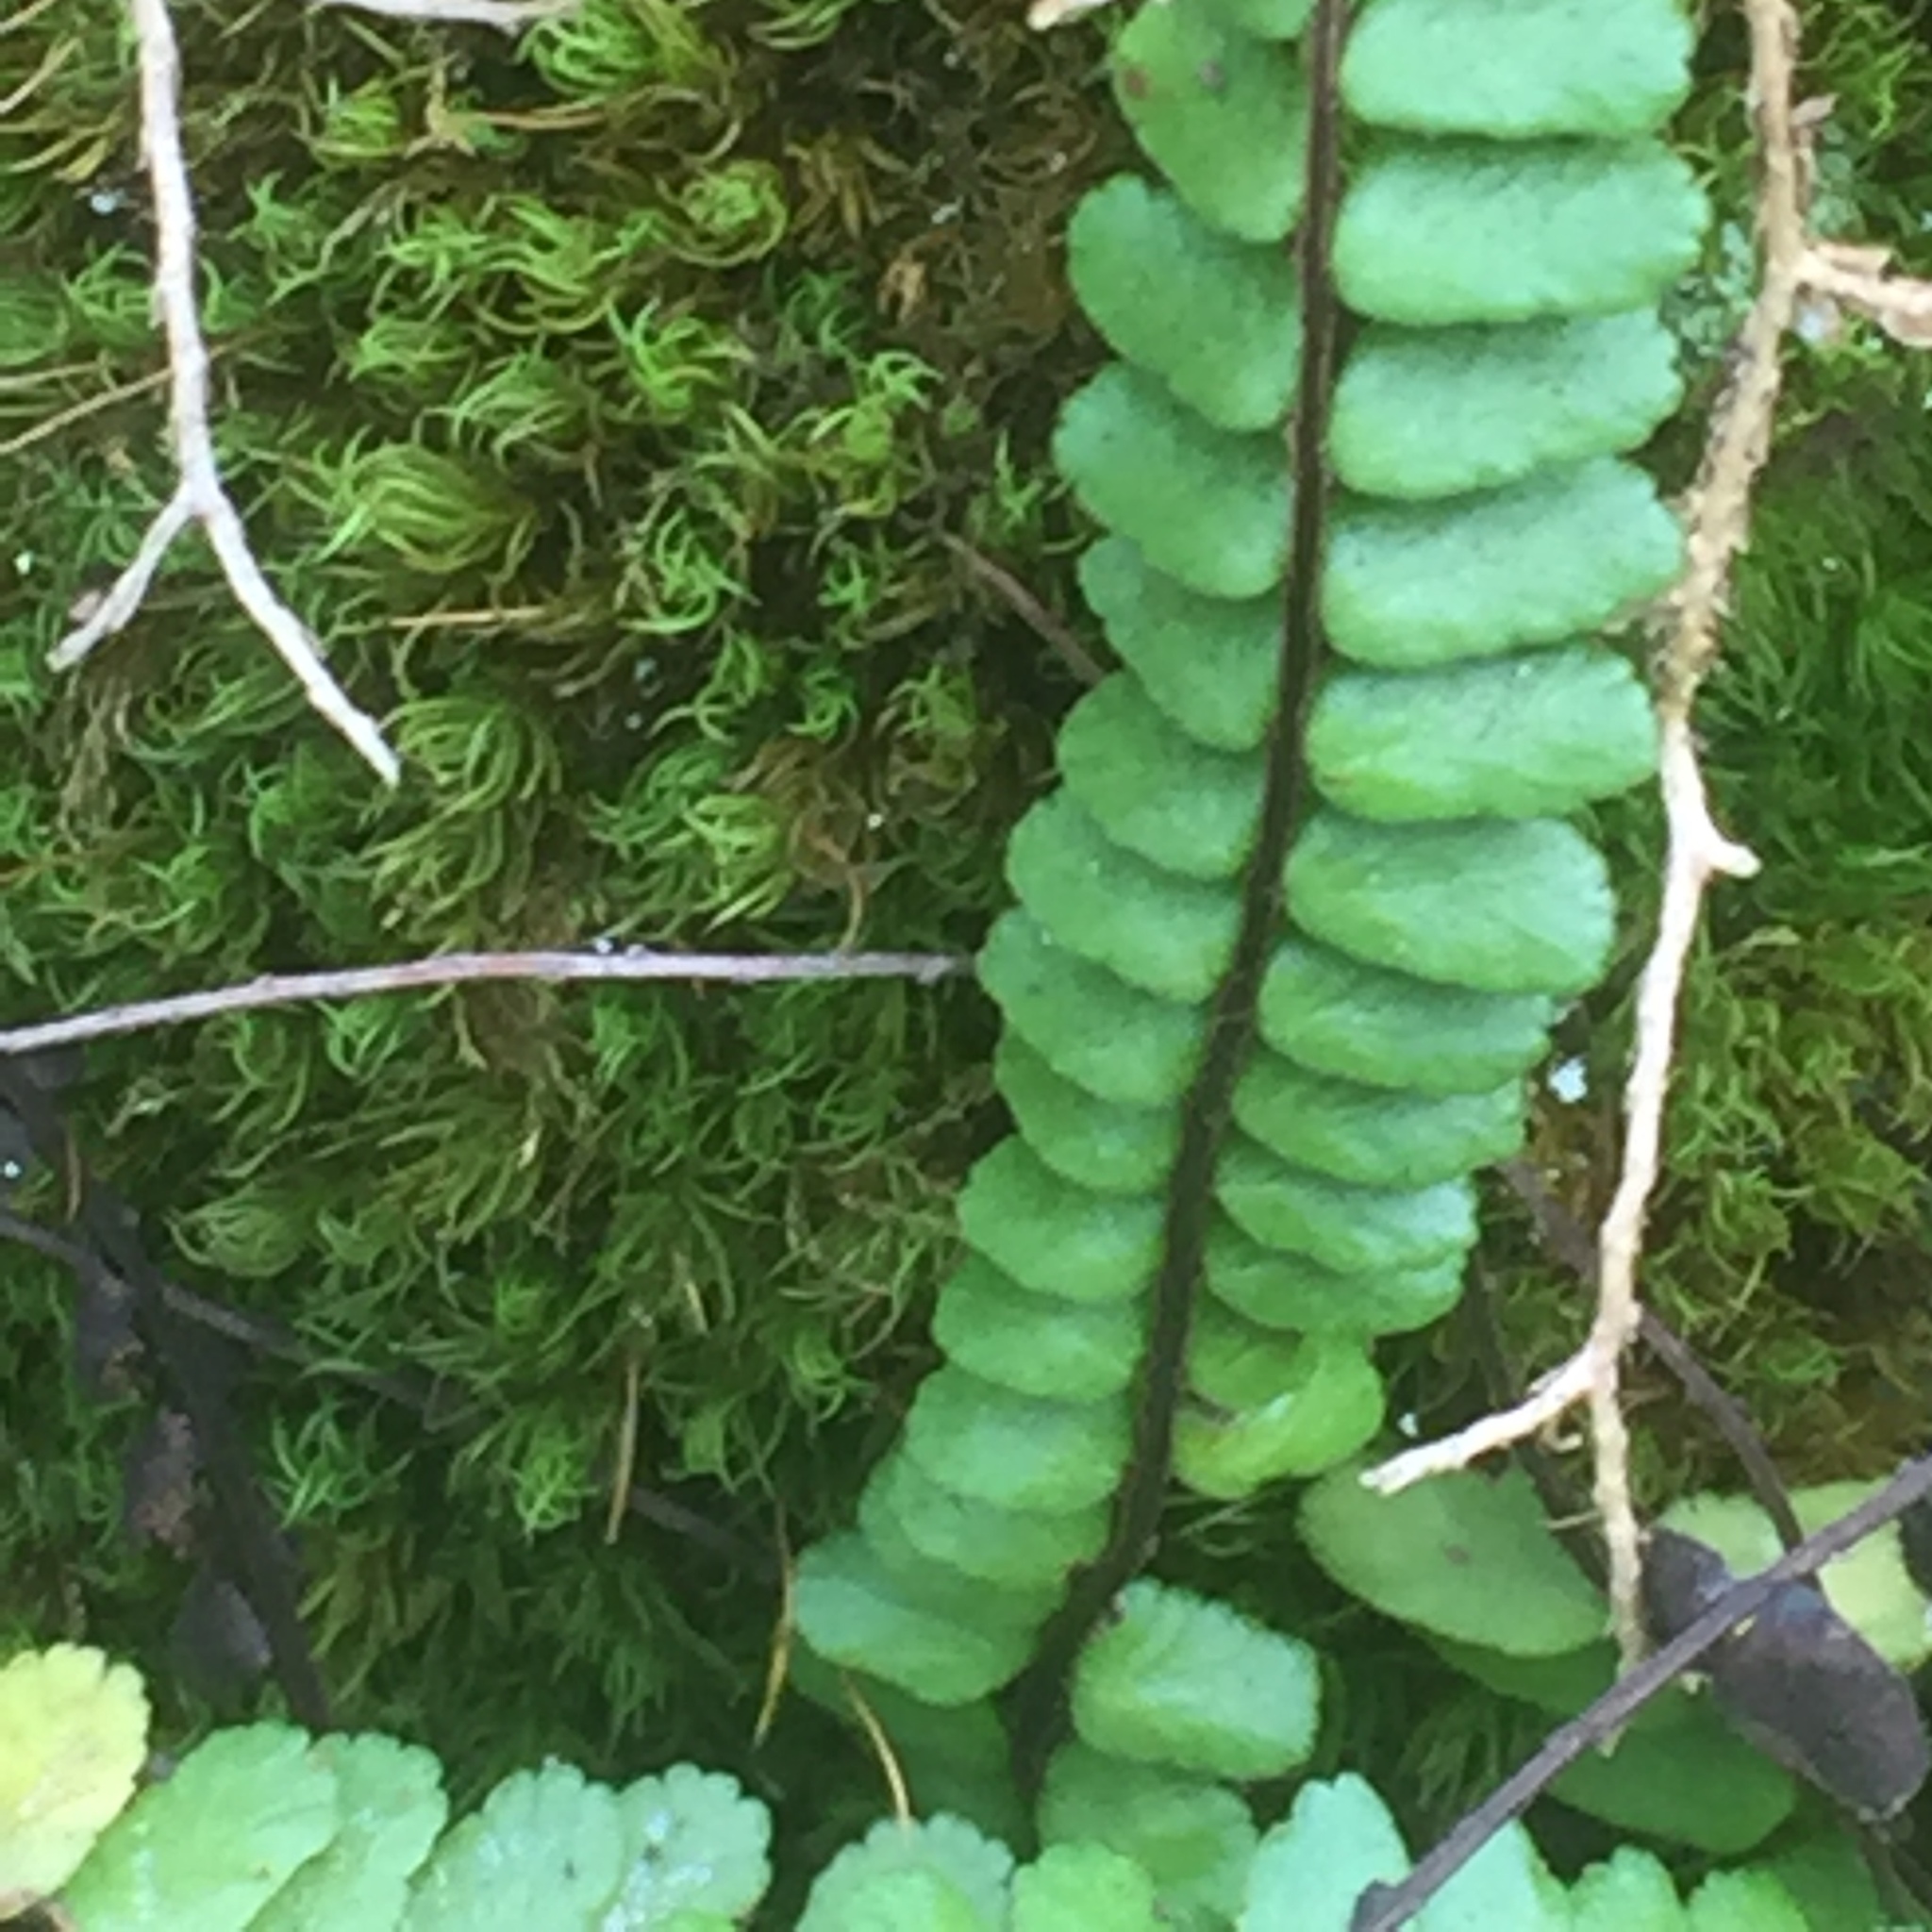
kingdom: Plantae
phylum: Tracheophyta
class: Polypodiopsida
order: Polypodiales
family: Aspleniaceae
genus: Asplenium
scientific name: Asplenium trichomanes
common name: Maidenhair spleenwort
